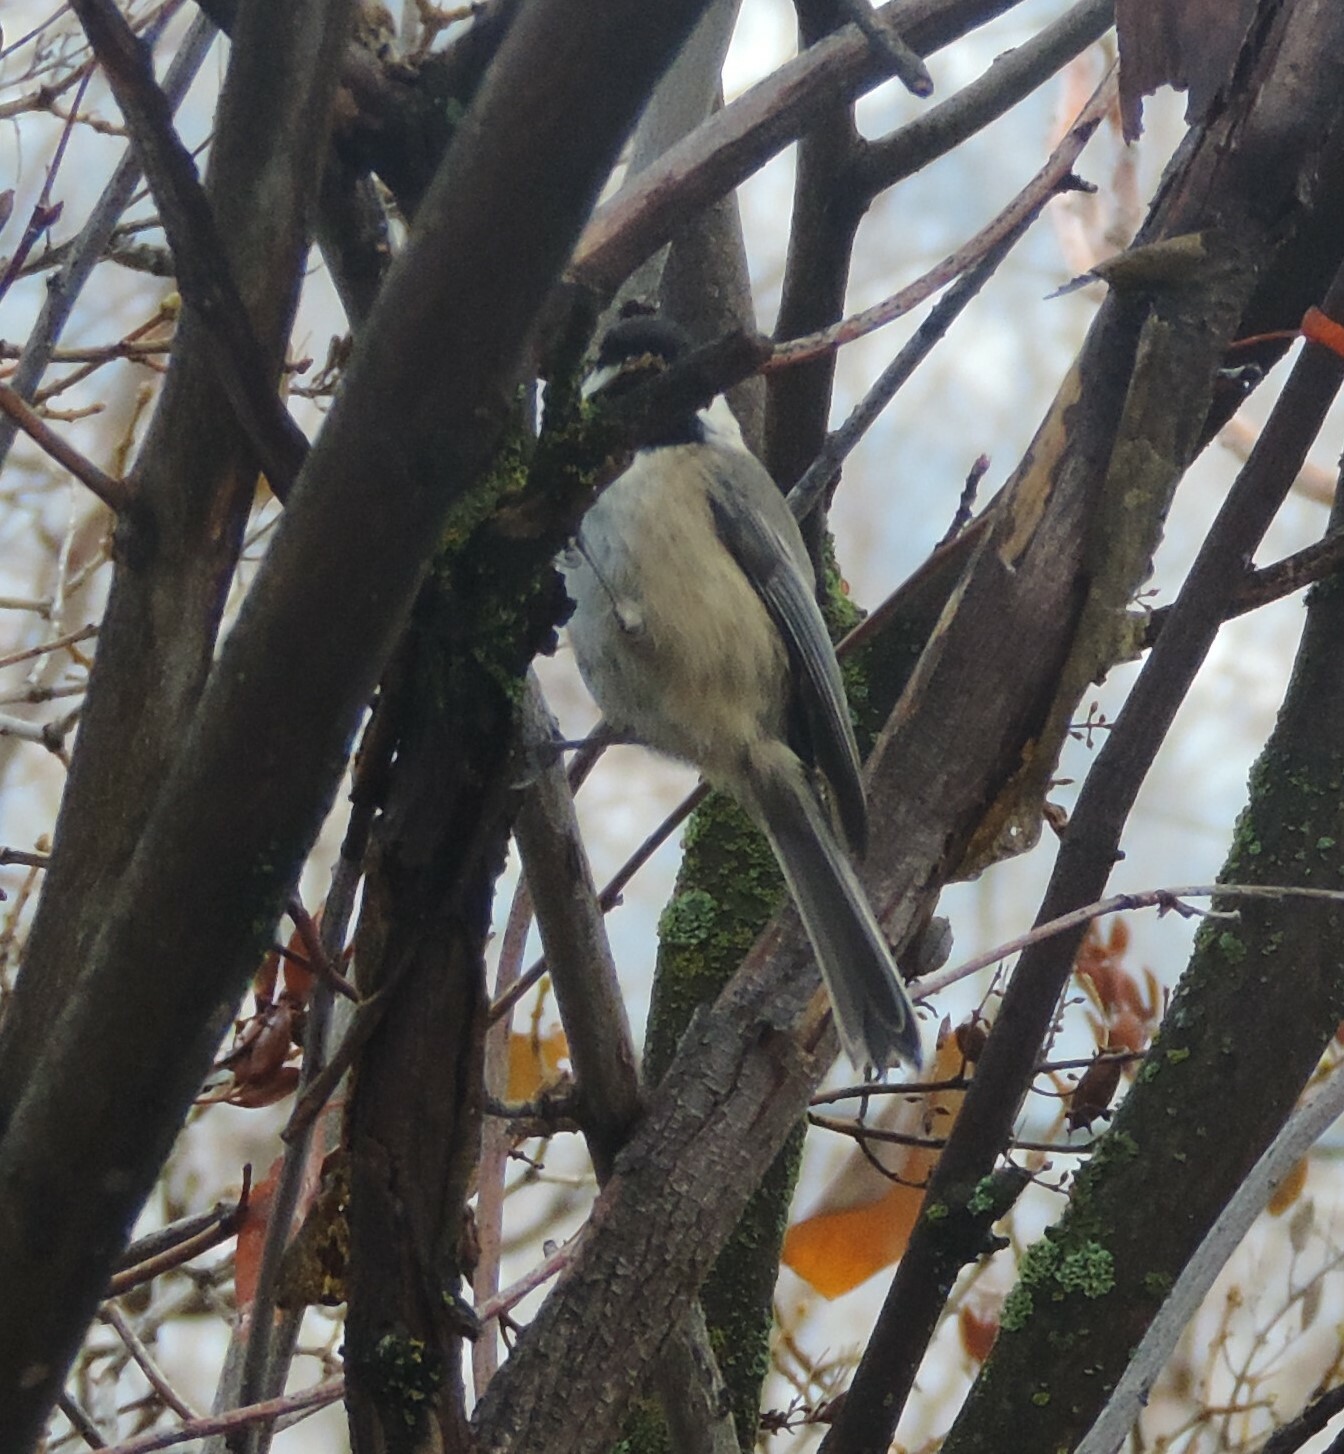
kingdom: Animalia
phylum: Chordata
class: Aves
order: Passeriformes
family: Paridae
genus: Poecile
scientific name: Poecile atricapillus
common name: Black-capped chickadee
